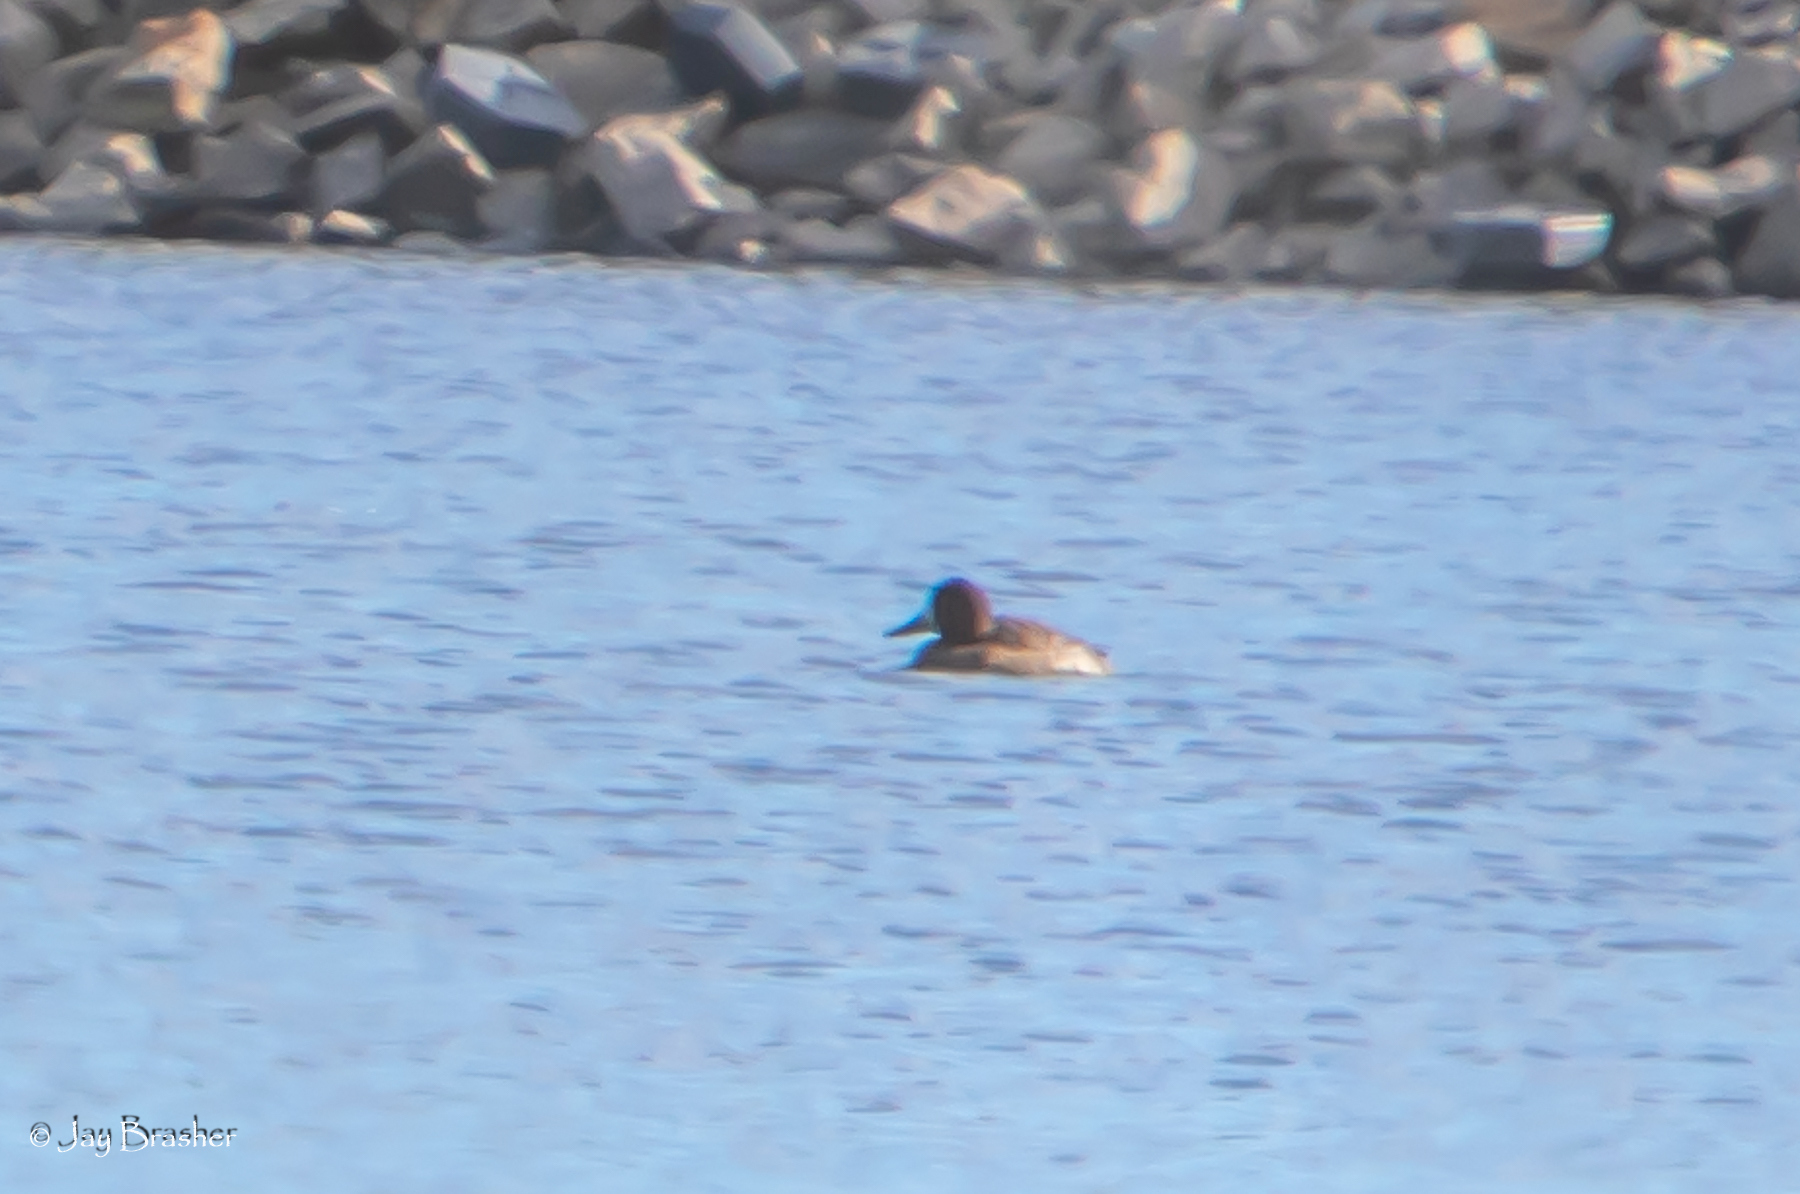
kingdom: Animalia
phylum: Chordata
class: Aves
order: Anseriformes
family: Anatidae
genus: Aythya
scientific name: Aythya affinis
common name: Lesser scaup
